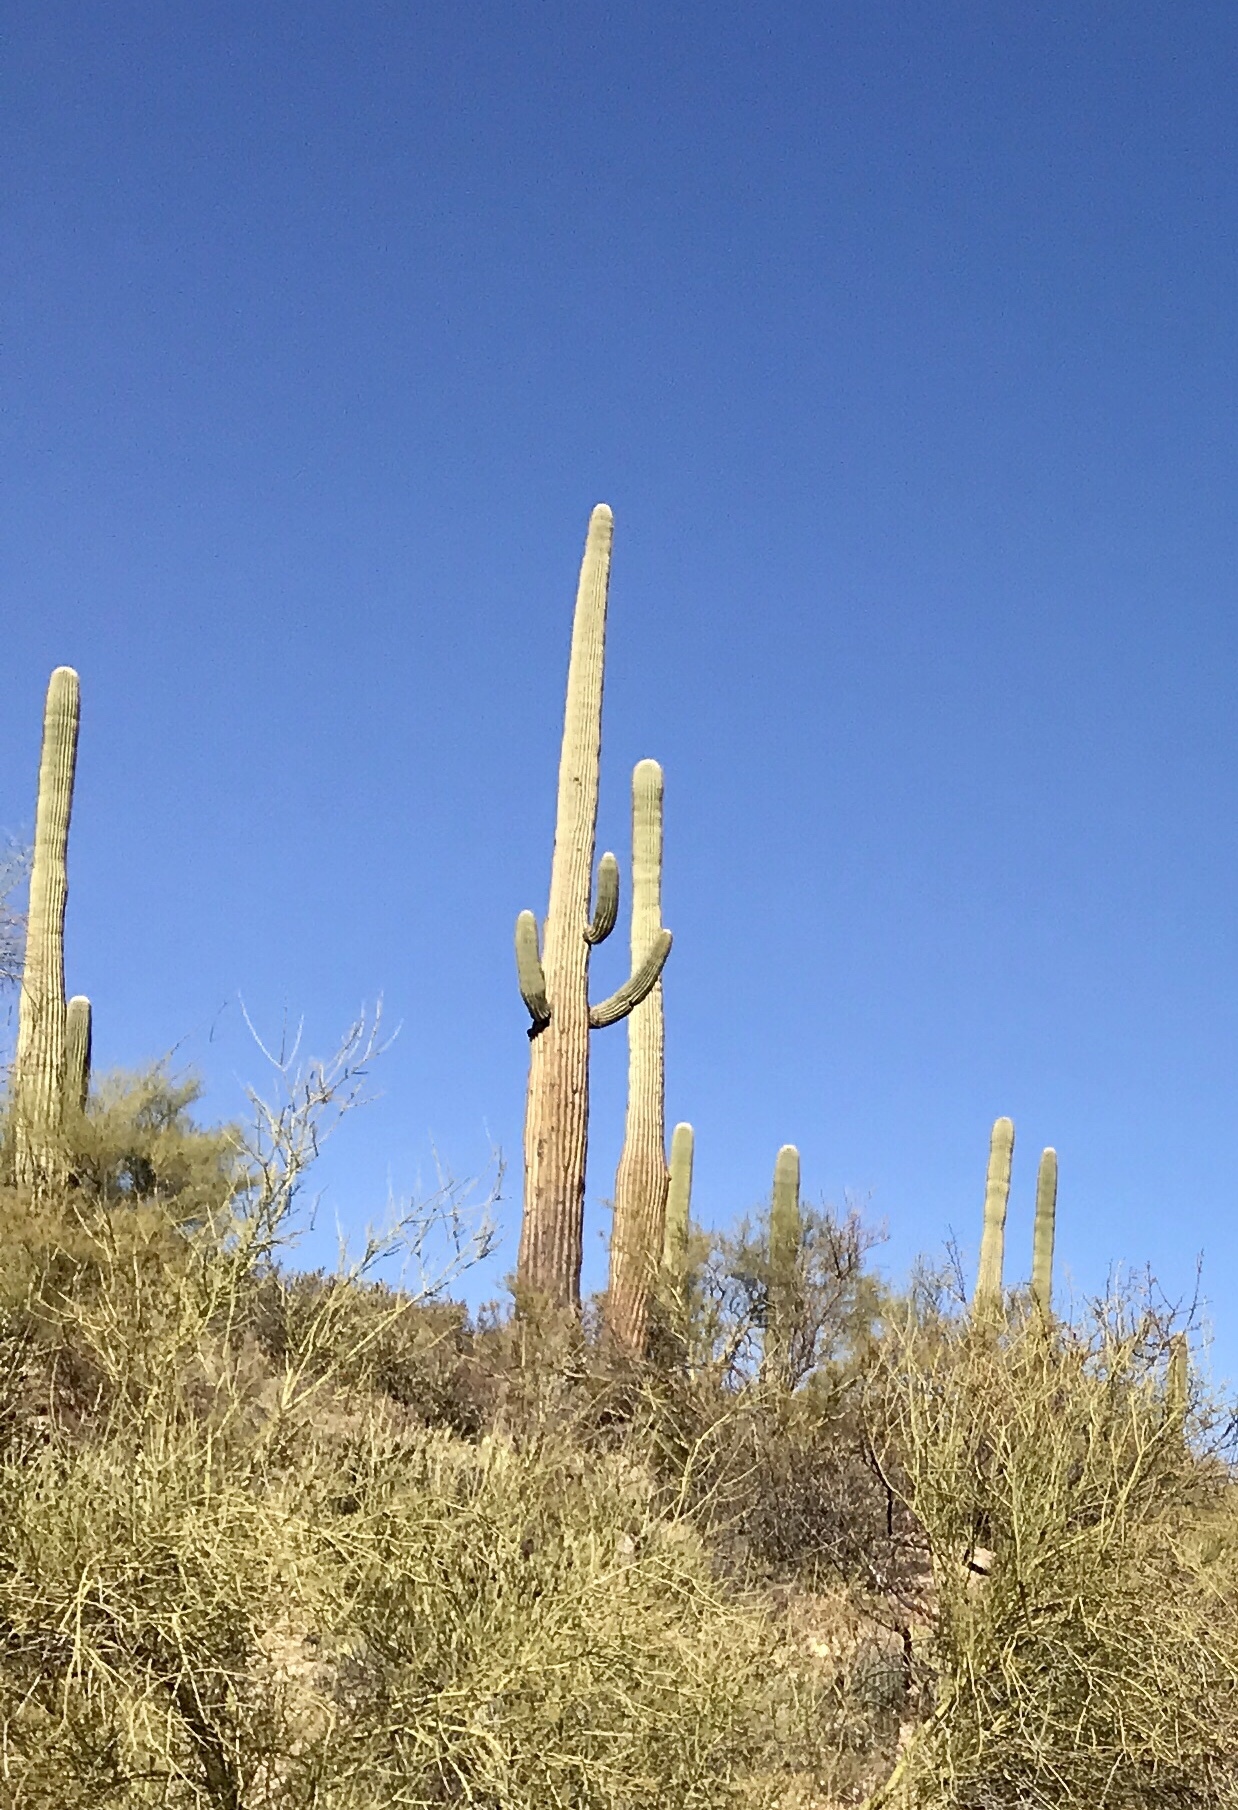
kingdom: Plantae
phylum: Tracheophyta
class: Magnoliopsida
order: Caryophyllales
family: Cactaceae
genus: Carnegiea
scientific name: Carnegiea gigantea
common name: Saguaro
